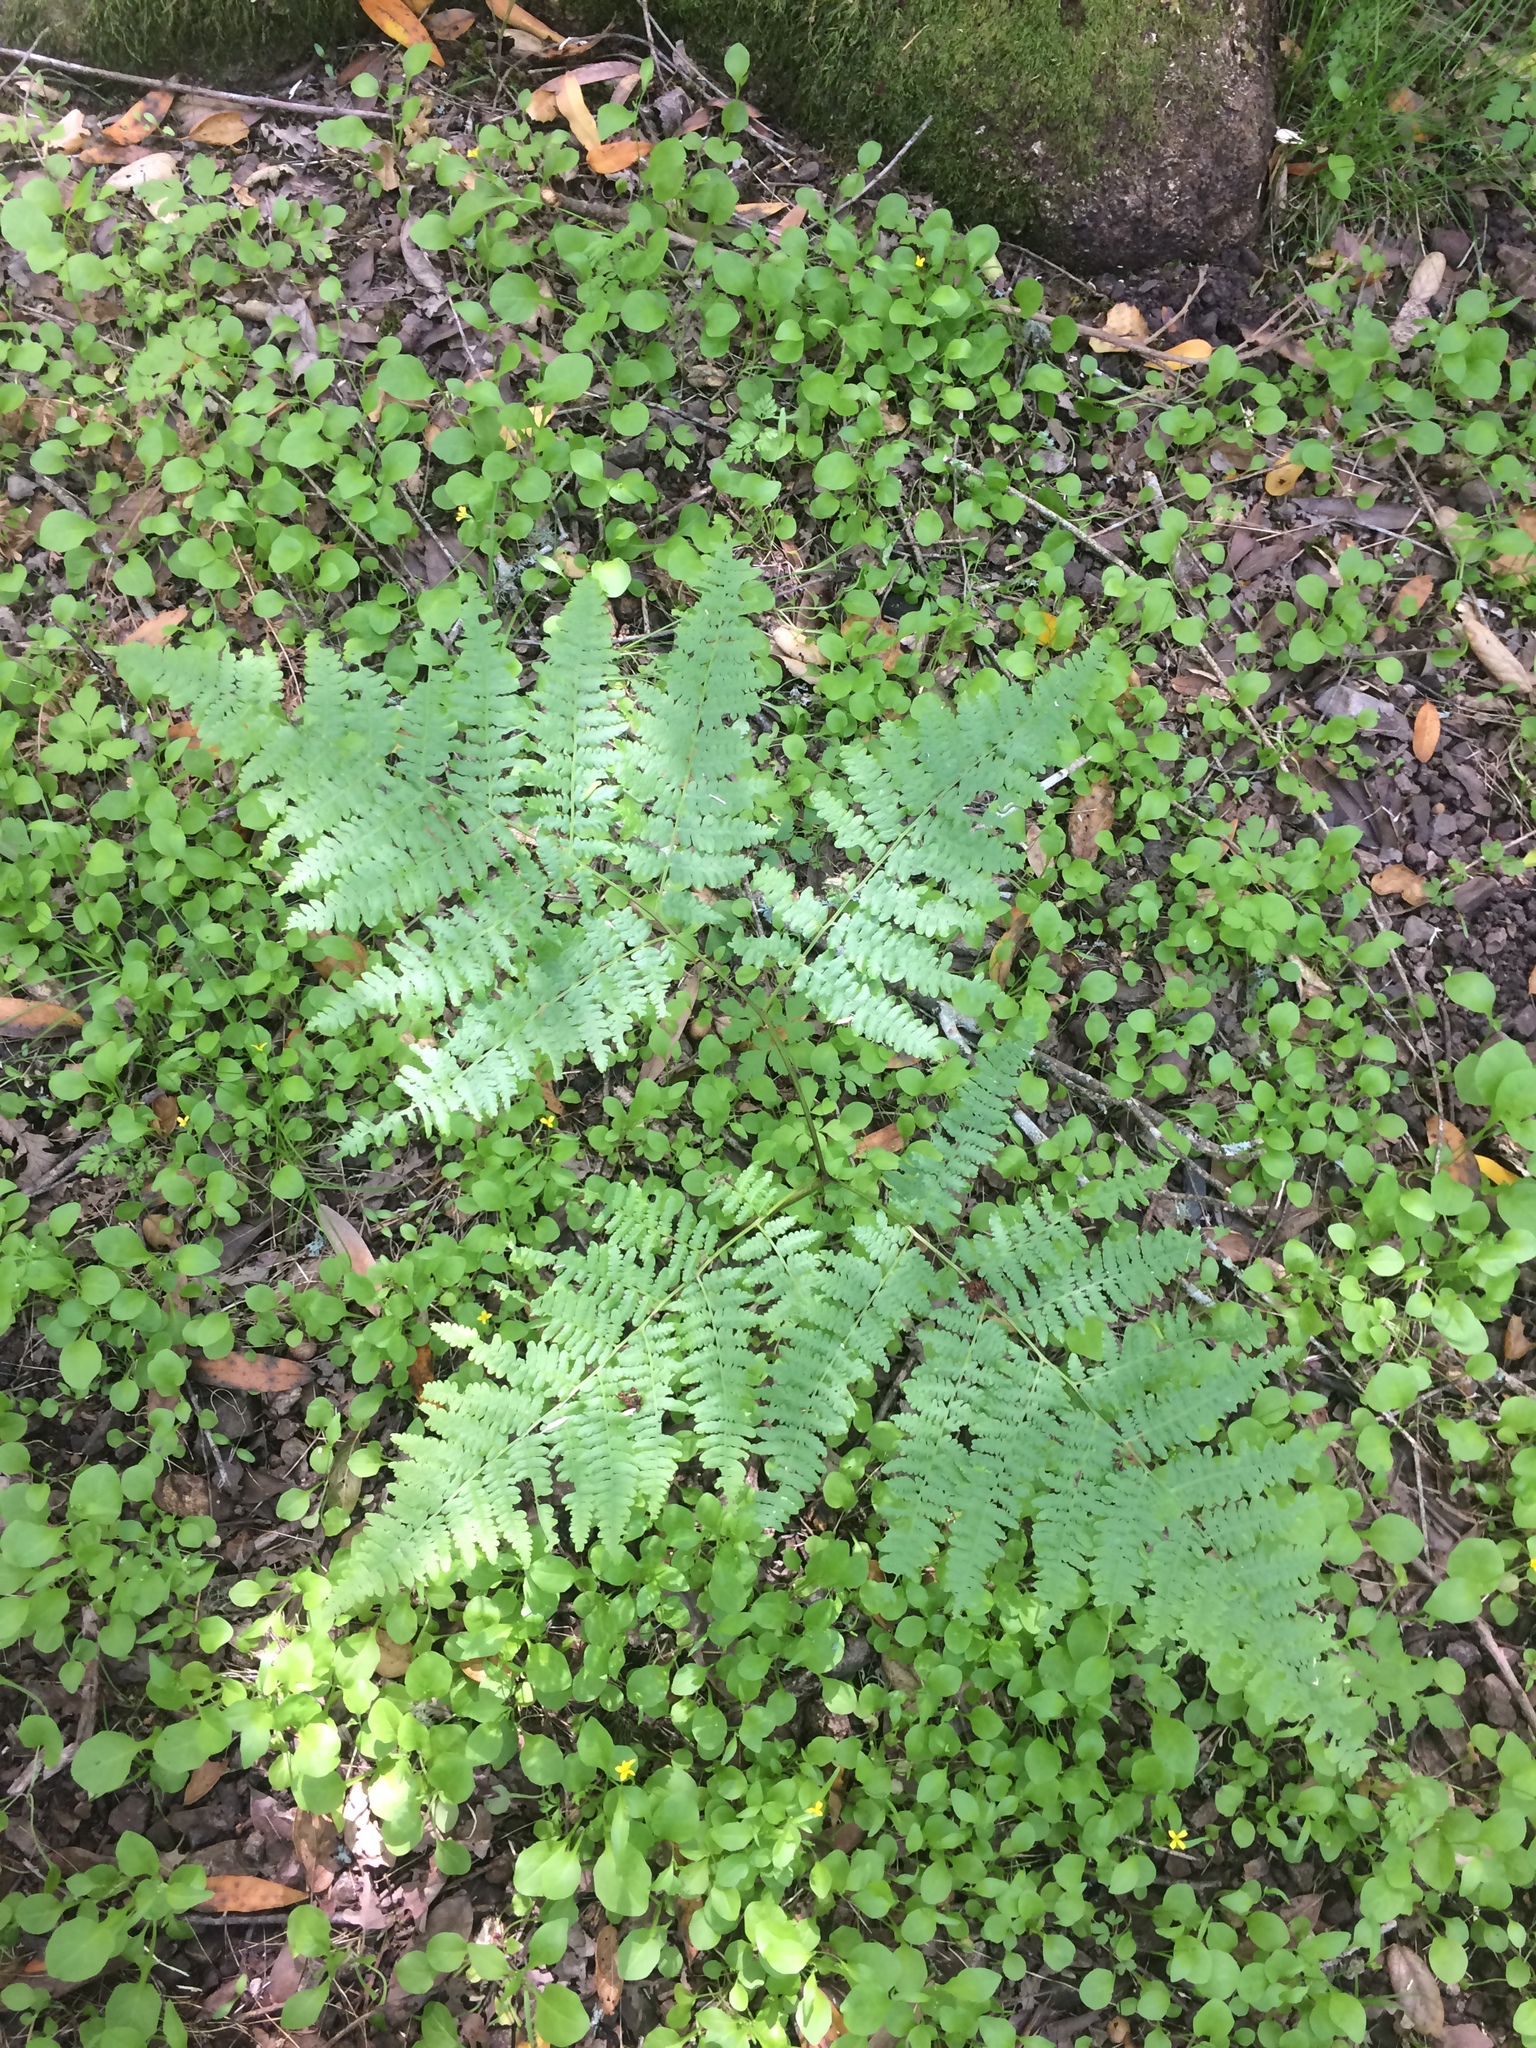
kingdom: Plantae
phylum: Tracheophyta
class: Polypodiopsida
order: Polypodiales
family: Dennstaedtiaceae
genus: Pteridium
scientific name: Pteridium aquilinum
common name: Bracken
